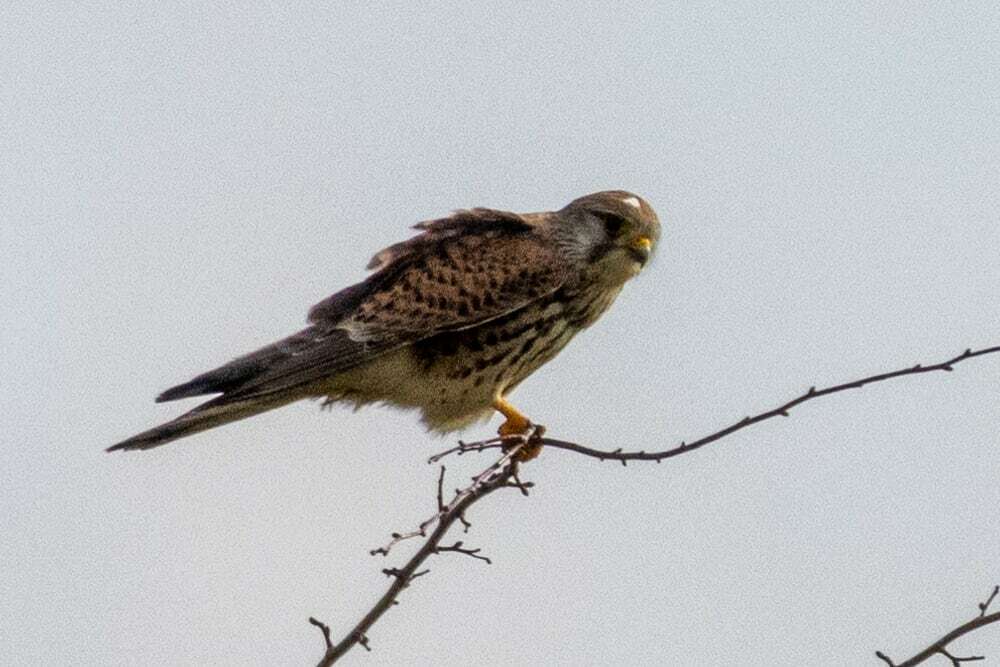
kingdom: Animalia
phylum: Chordata
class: Aves
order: Falconiformes
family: Falconidae
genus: Falco
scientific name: Falco tinnunculus
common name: Common kestrel
